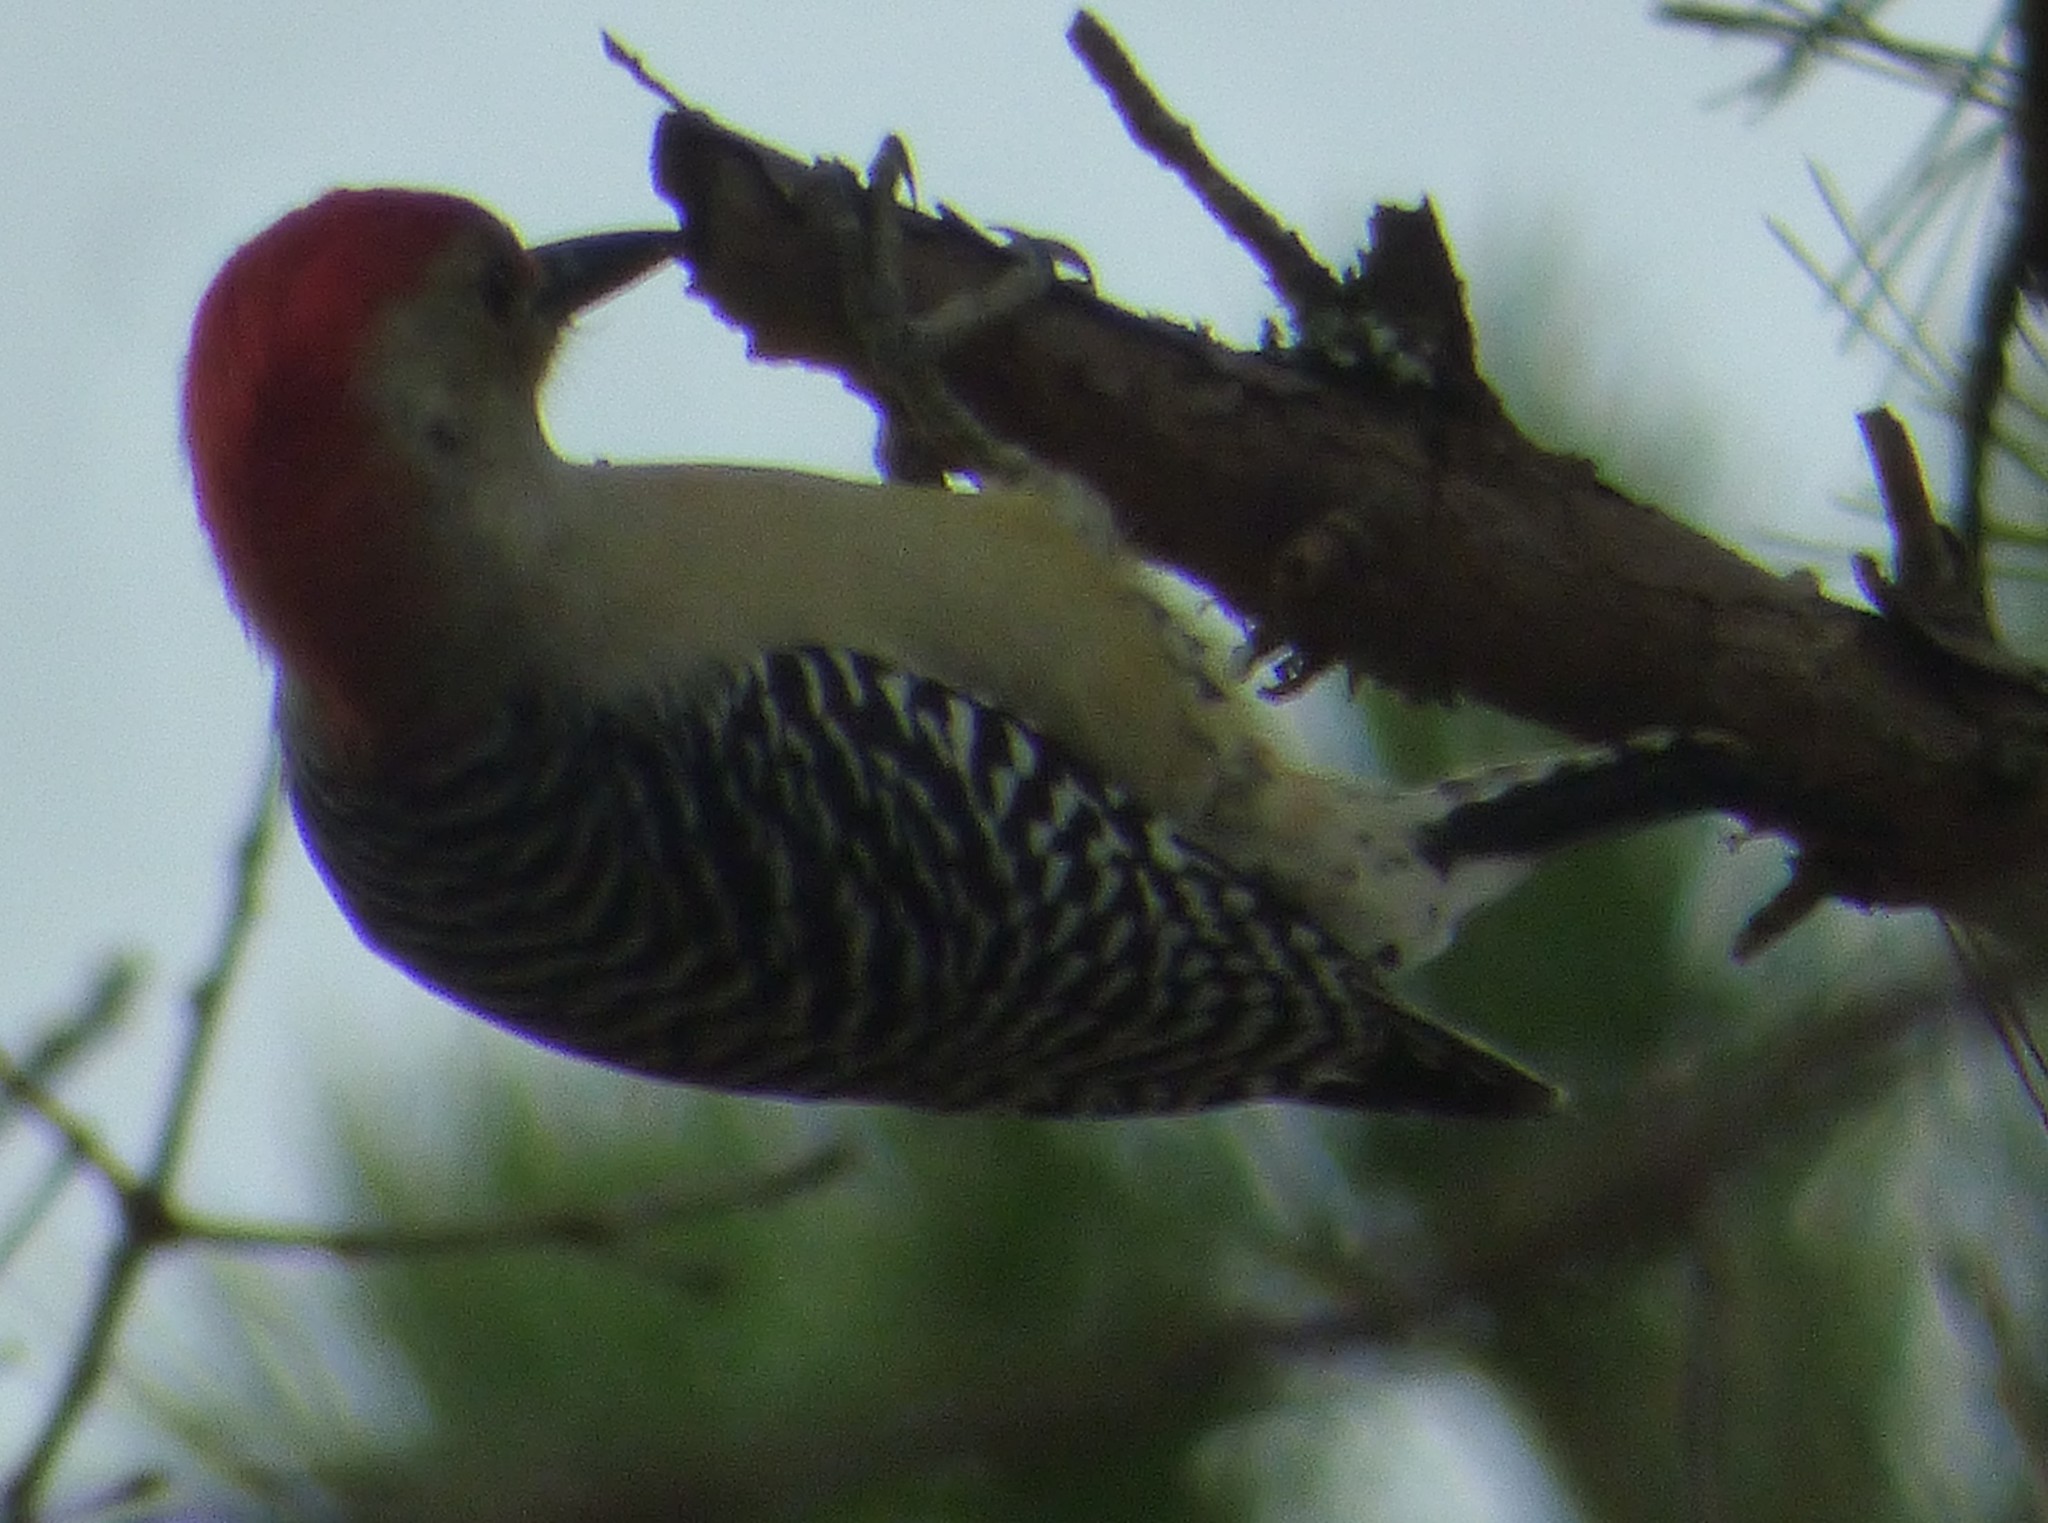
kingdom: Animalia
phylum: Chordata
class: Aves
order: Piciformes
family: Picidae
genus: Melanerpes
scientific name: Melanerpes carolinus
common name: Red-bellied woodpecker
